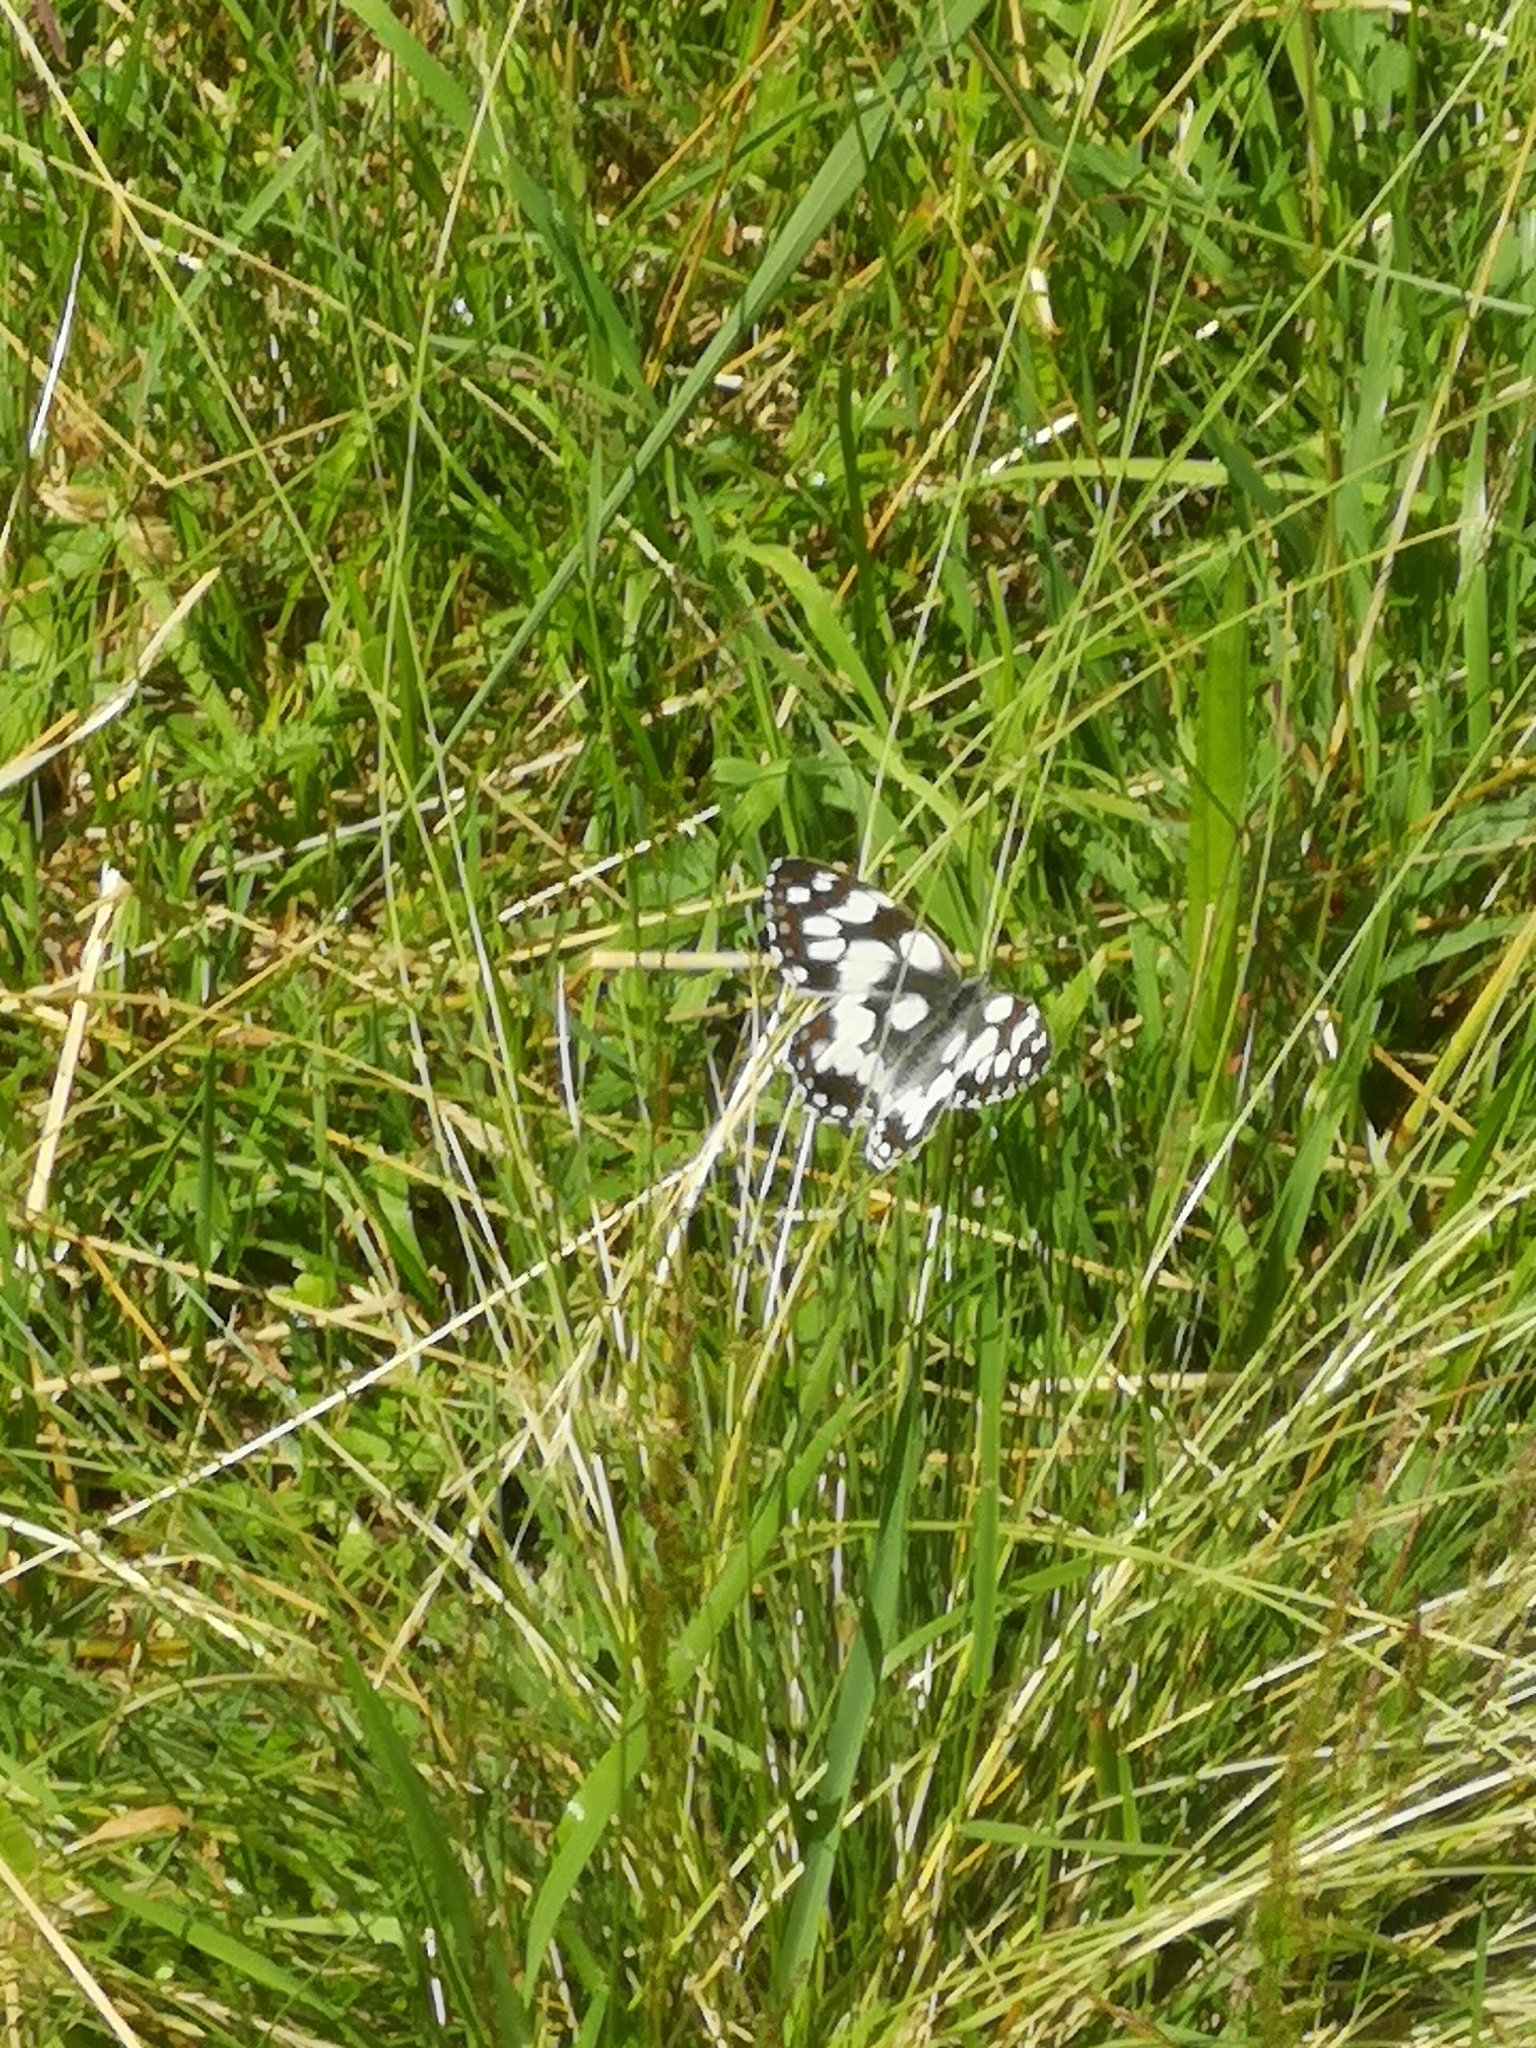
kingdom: Animalia
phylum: Arthropoda
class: Insecta
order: Lepidoptera
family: Nymphalidae
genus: Melanargia
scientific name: Melanargia galathea
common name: Marbled white
